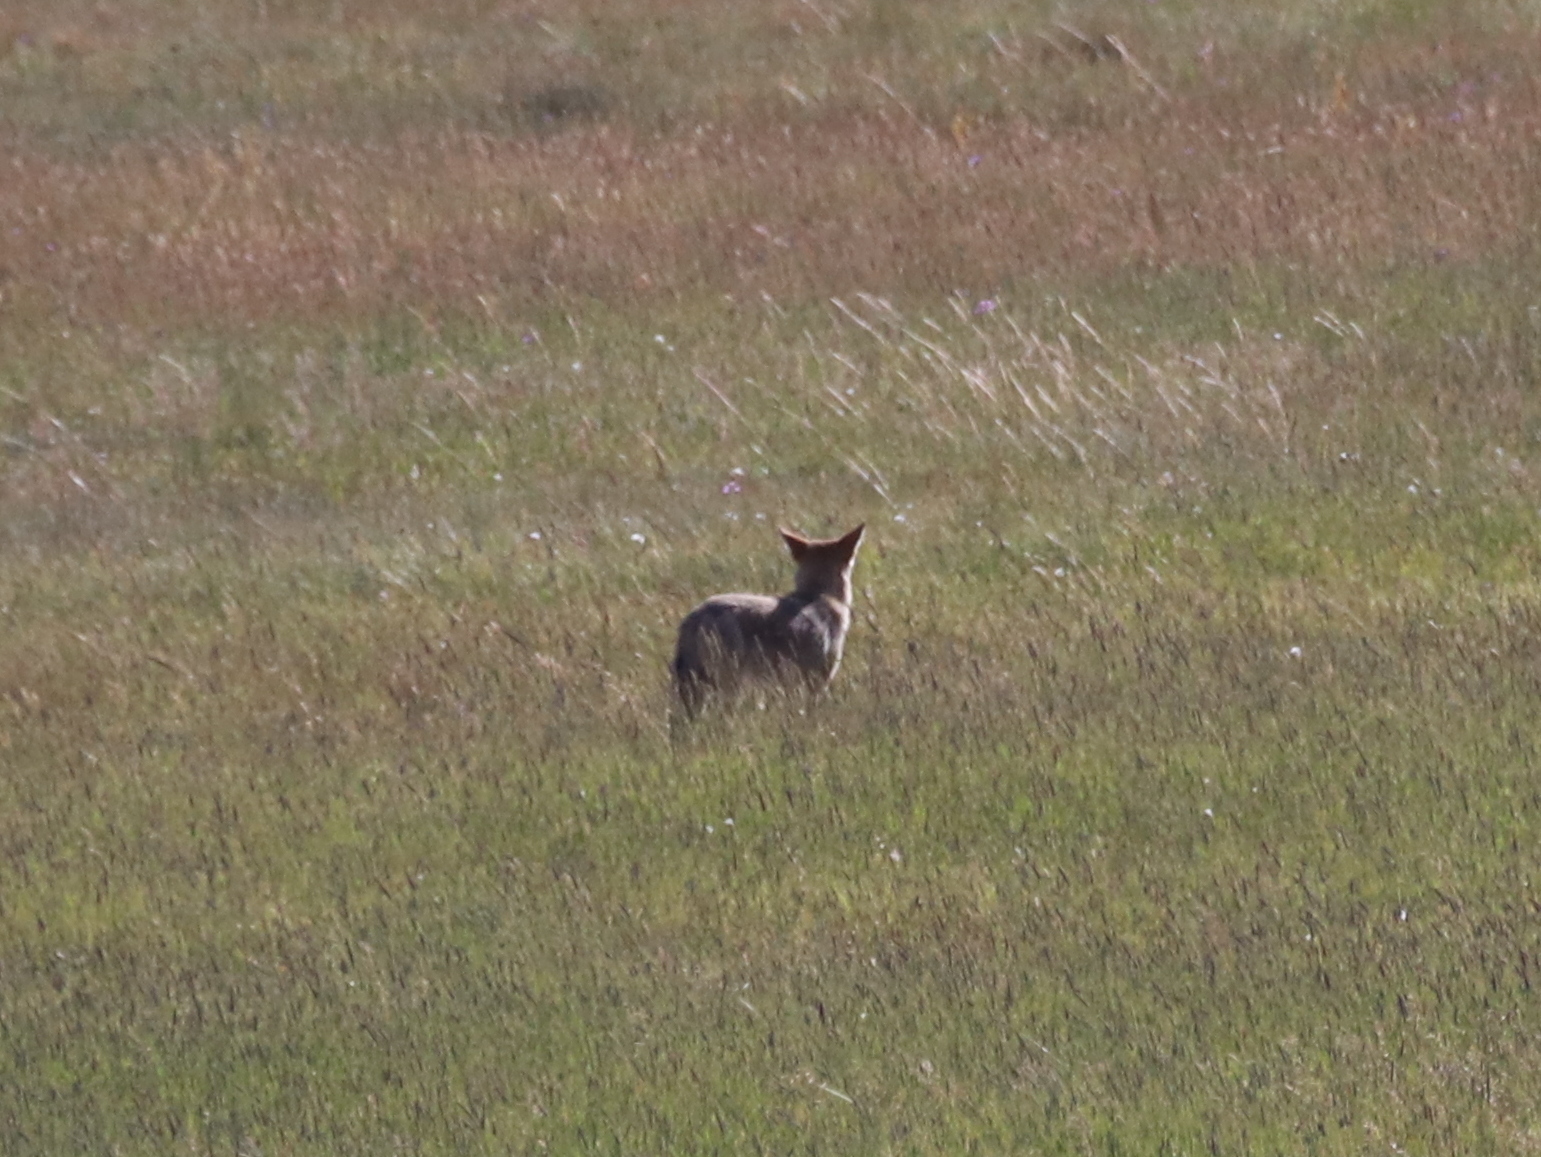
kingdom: Animalia
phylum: Chordata
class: Mammalia
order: Carnivora
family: Canidae
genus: Canis
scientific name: Canis latrans
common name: Coyote
